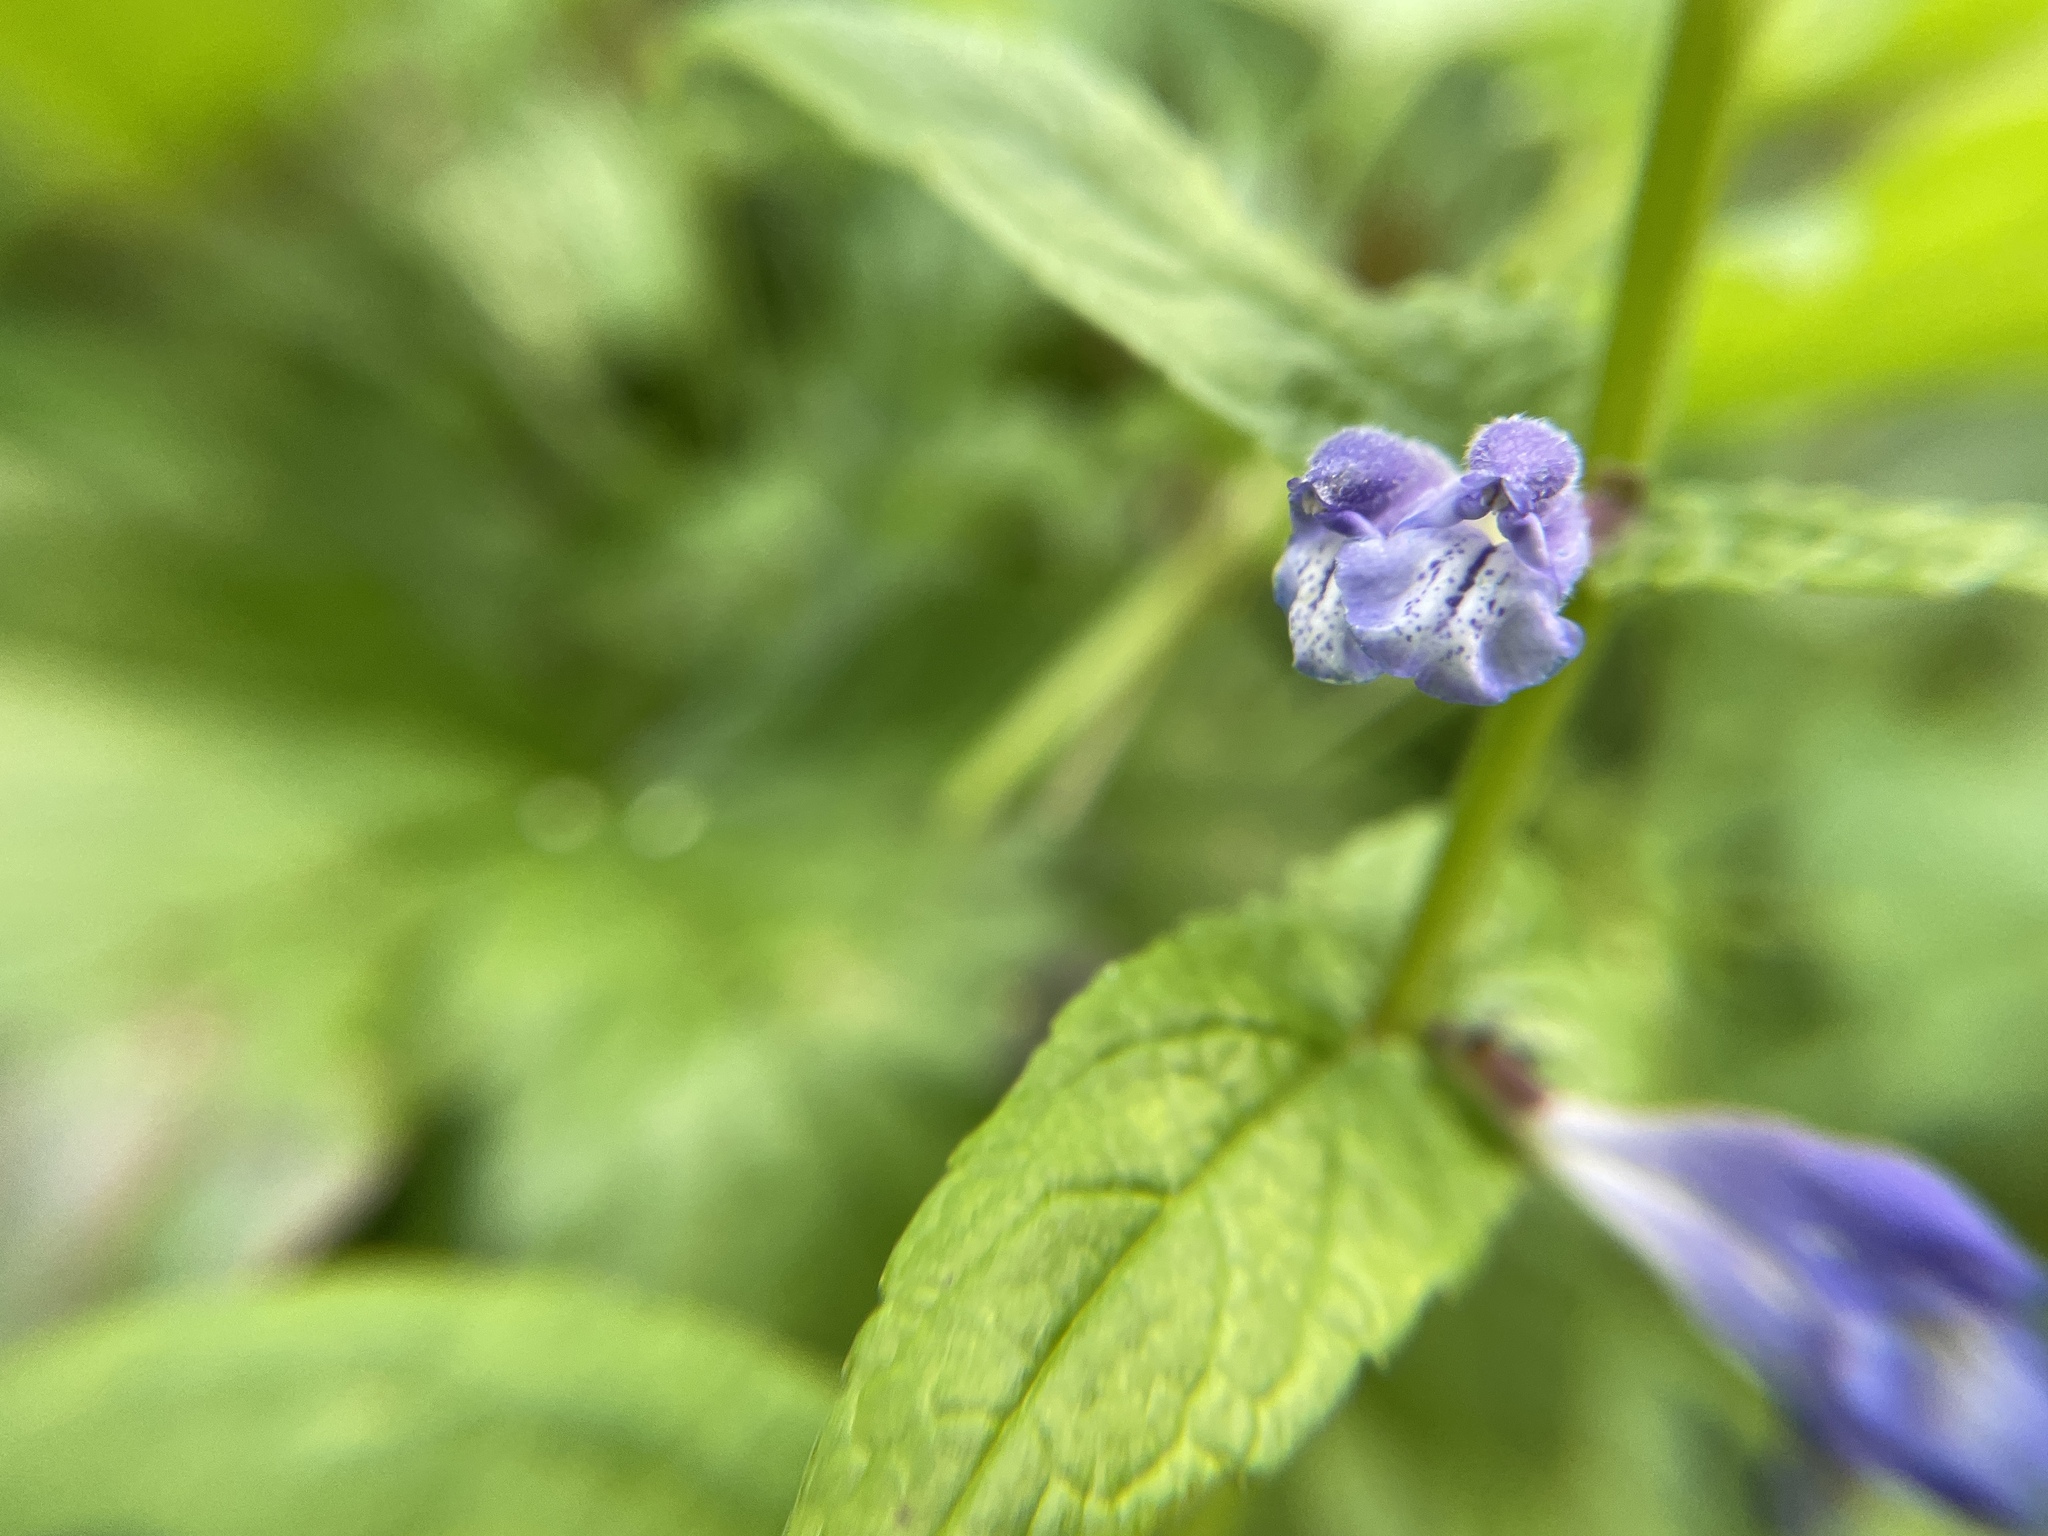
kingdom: Plantae
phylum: Tracheophyta
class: Magnoliopsida
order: Lamiales
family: Lamiaceae
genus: Scutellaria
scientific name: Scutellaria galericulata
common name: Skullcap
